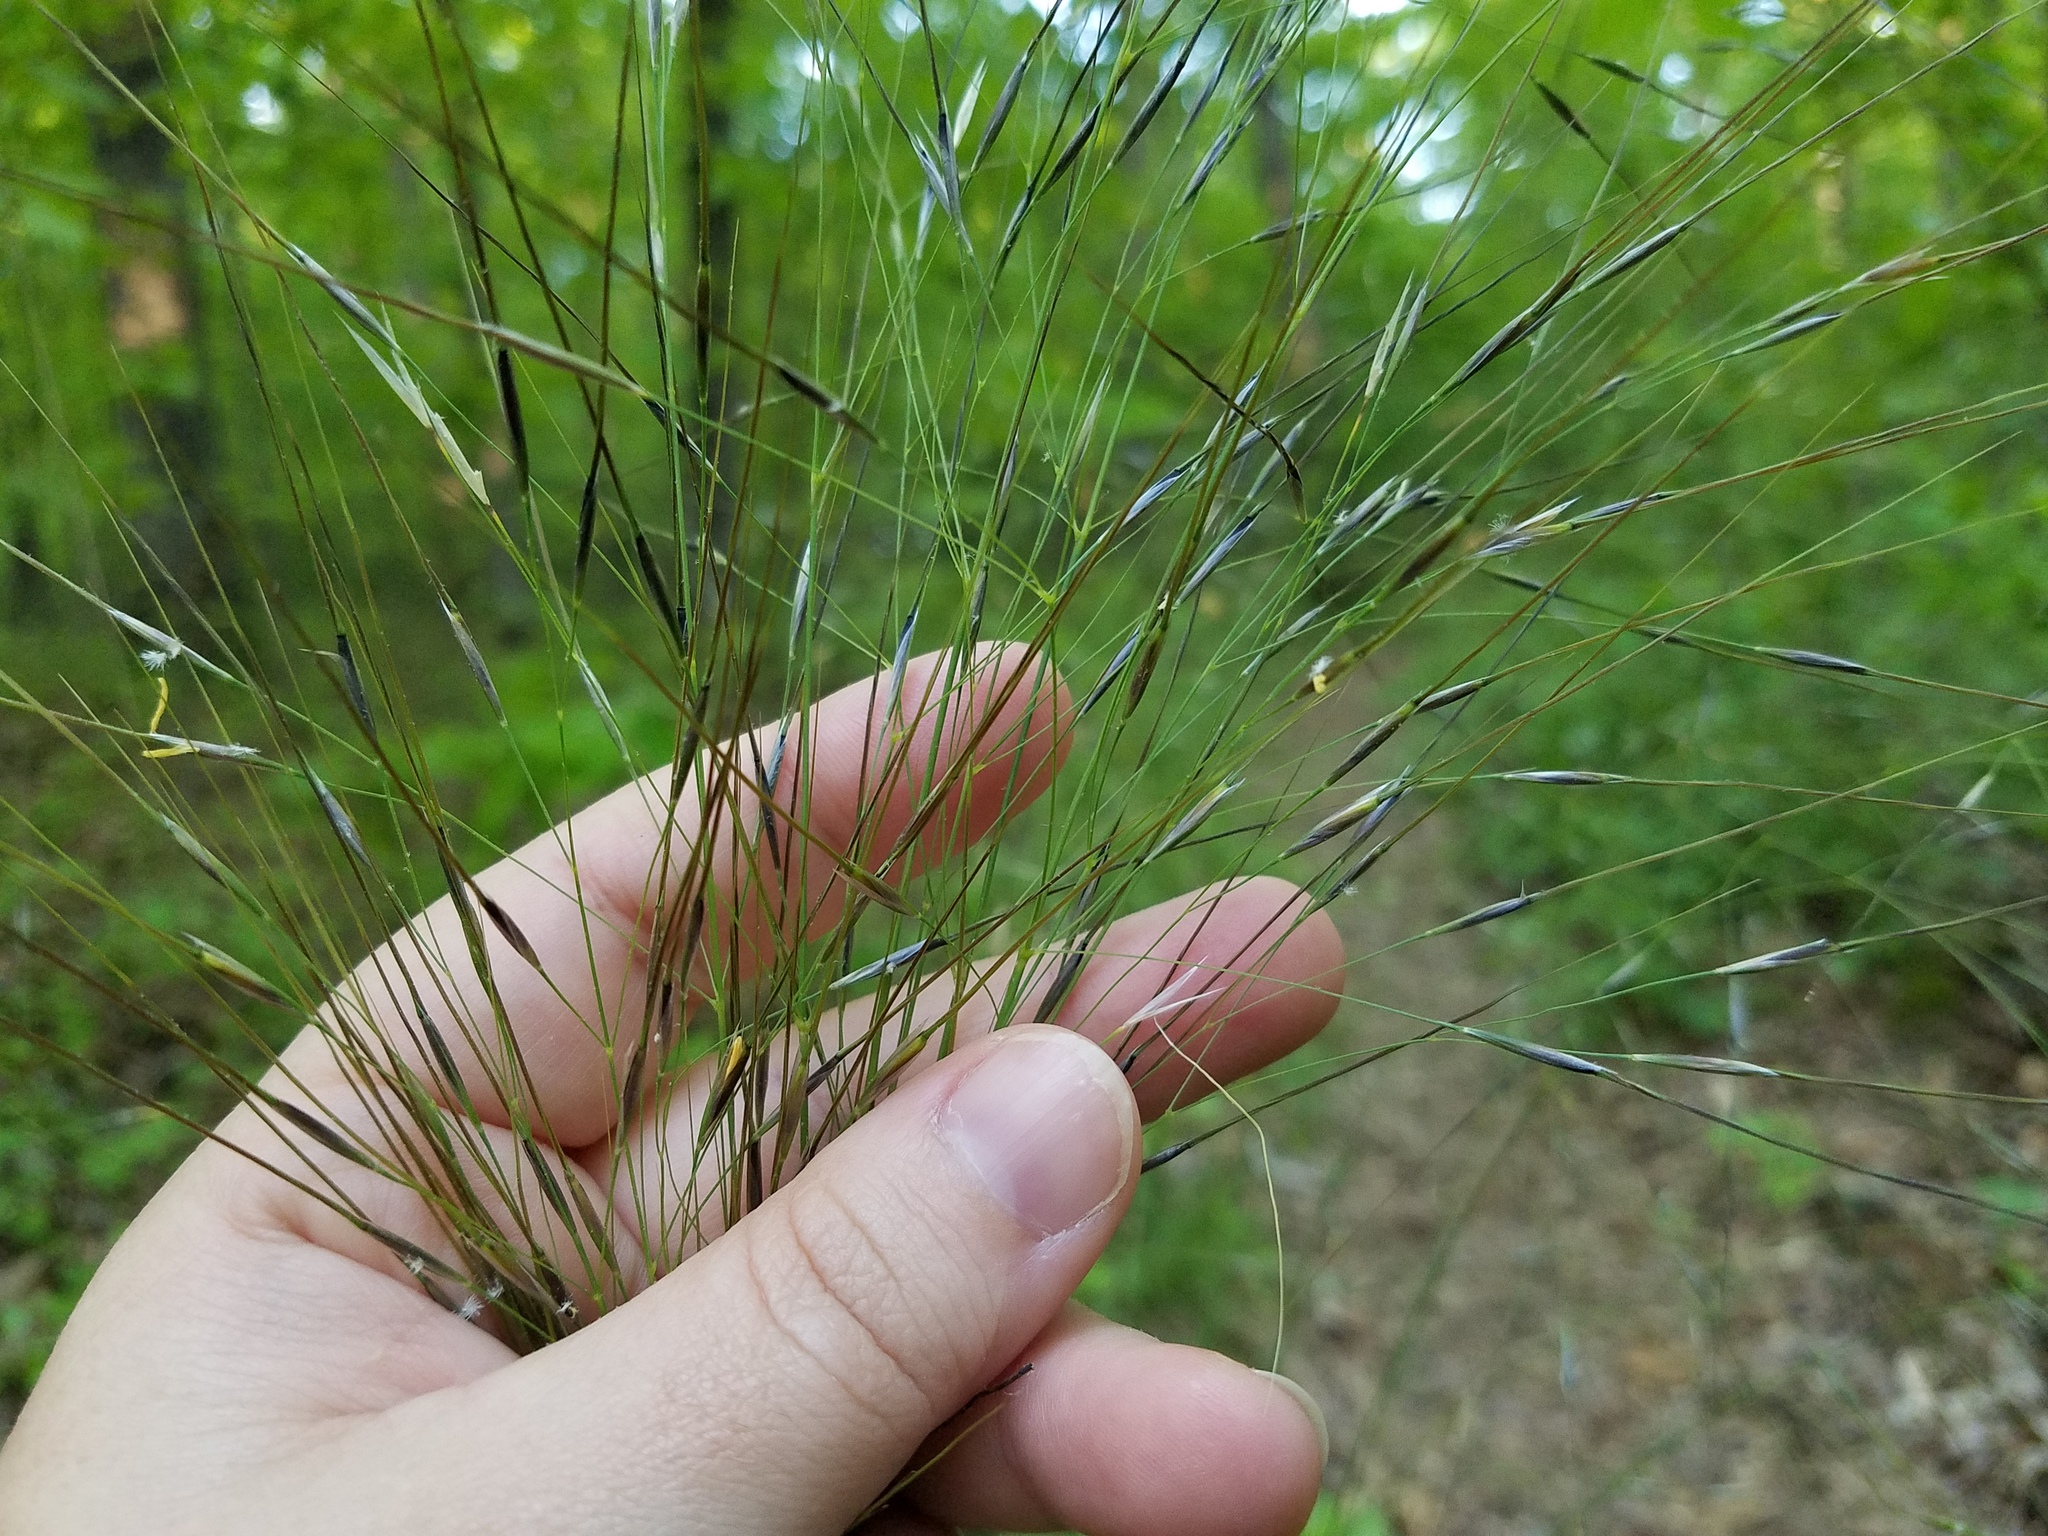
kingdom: Plantae
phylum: Tracheophyta
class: Liliopsida
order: Poales
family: Poaceae
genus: Piptochaetium
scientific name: Piptochaetium avenaceum
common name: Black bunchgrass
